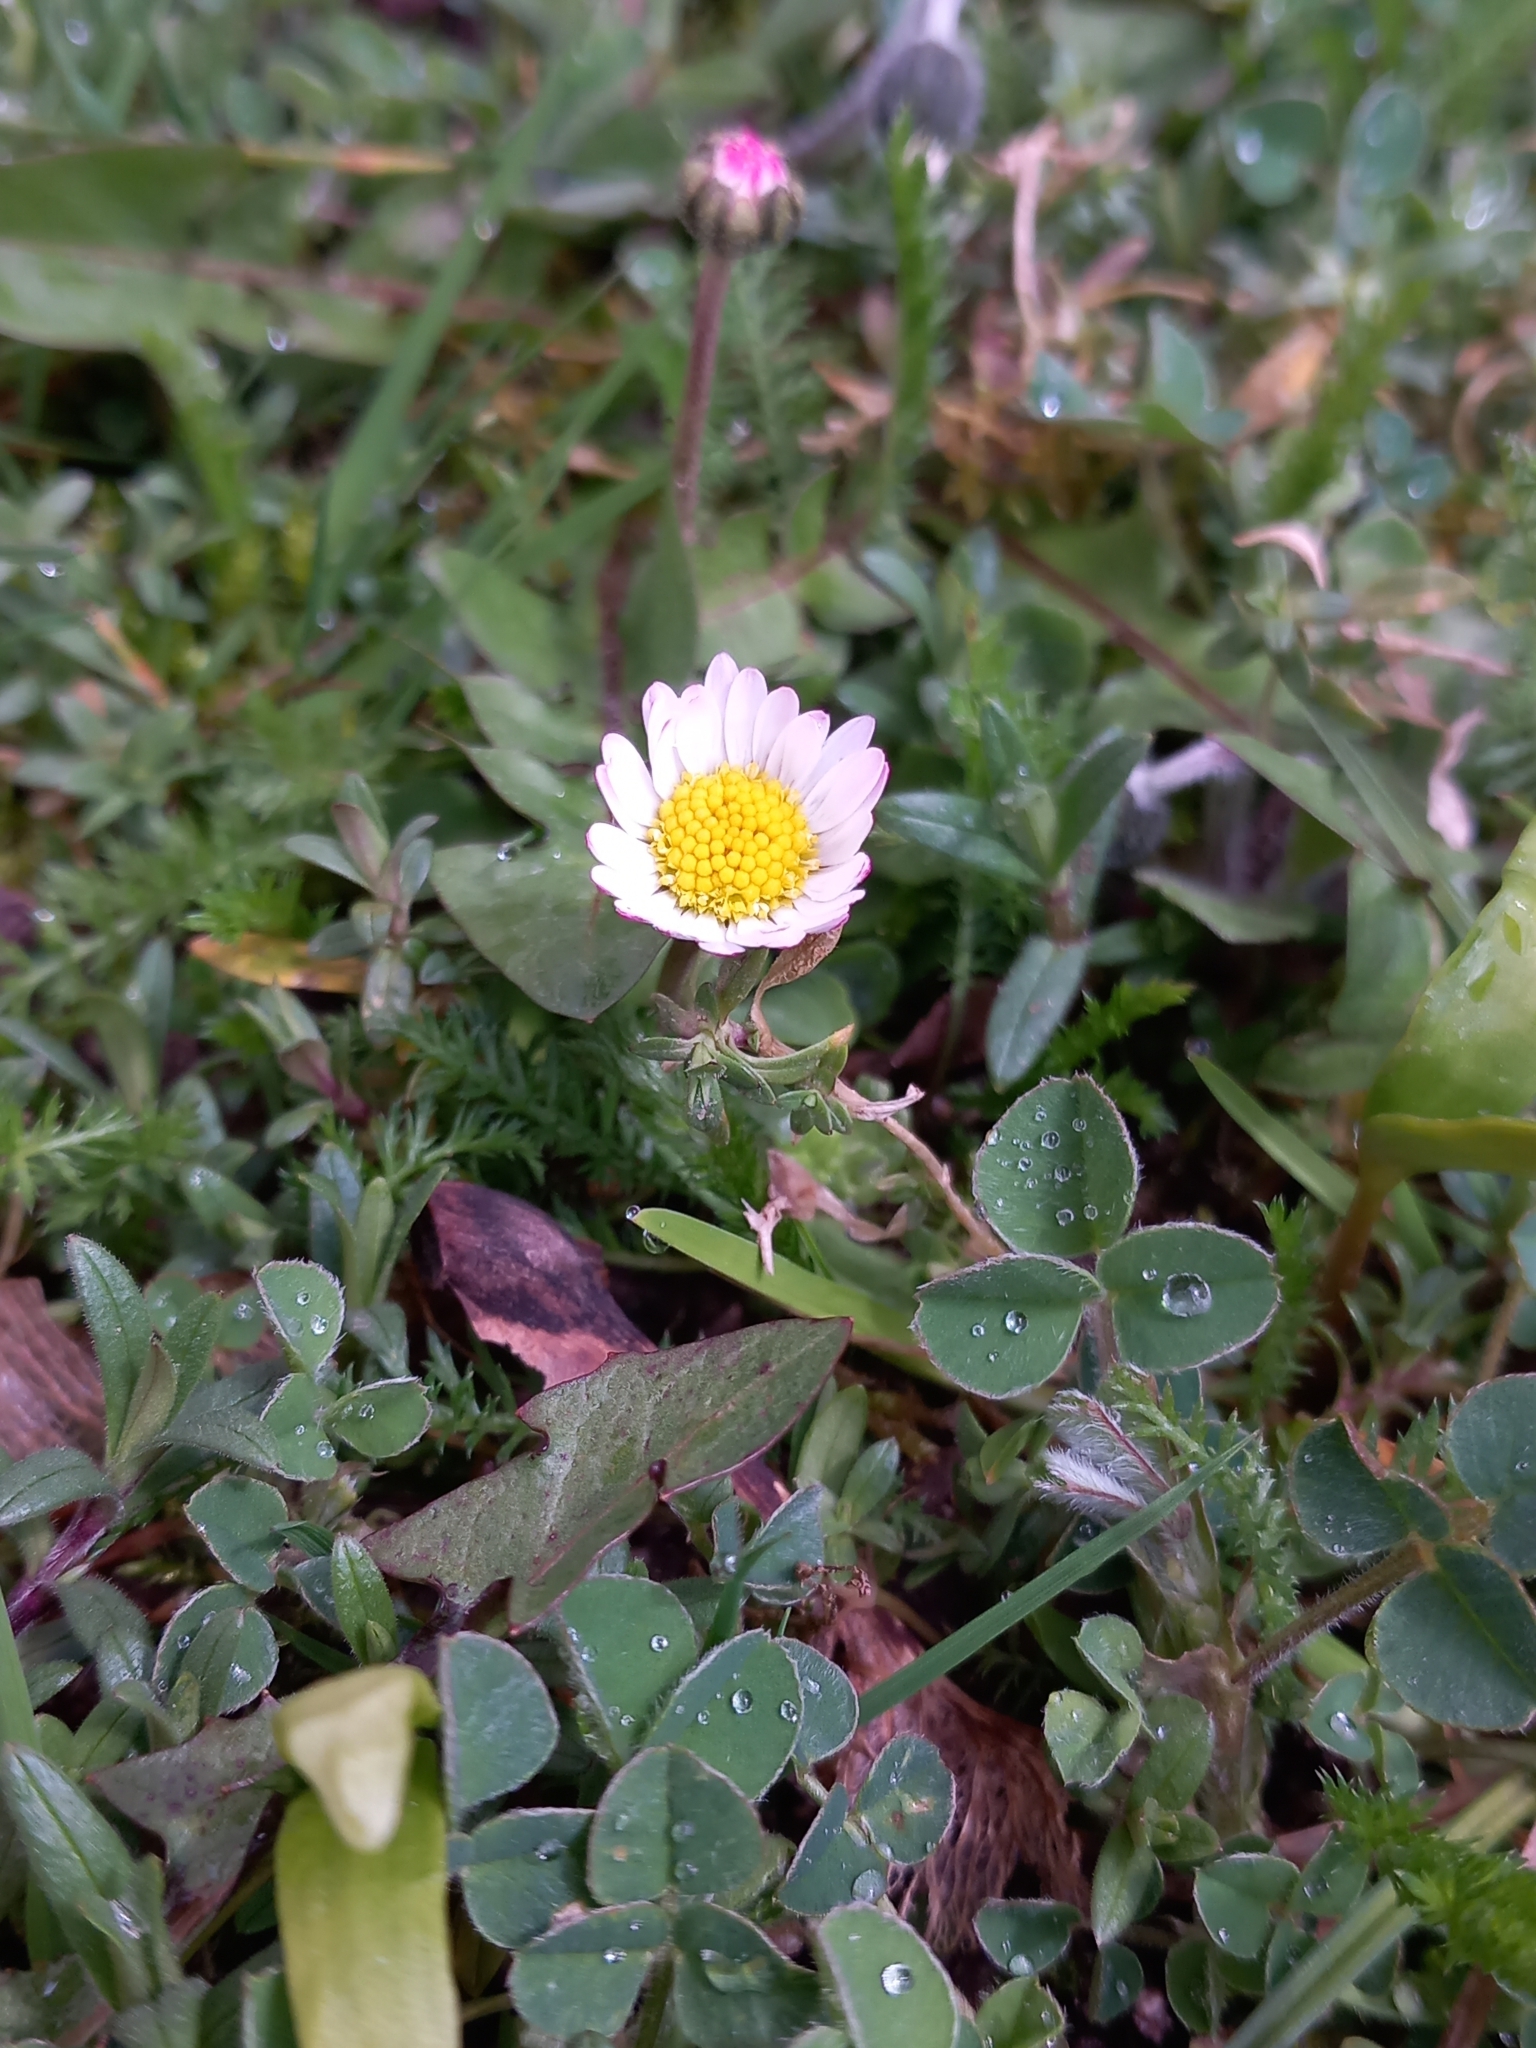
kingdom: Plantae
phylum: Tracheophyta
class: Magnoliopsida
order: Asterales
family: Asteraceae
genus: Bellis
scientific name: Bellis perennis
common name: Lawndaisy
